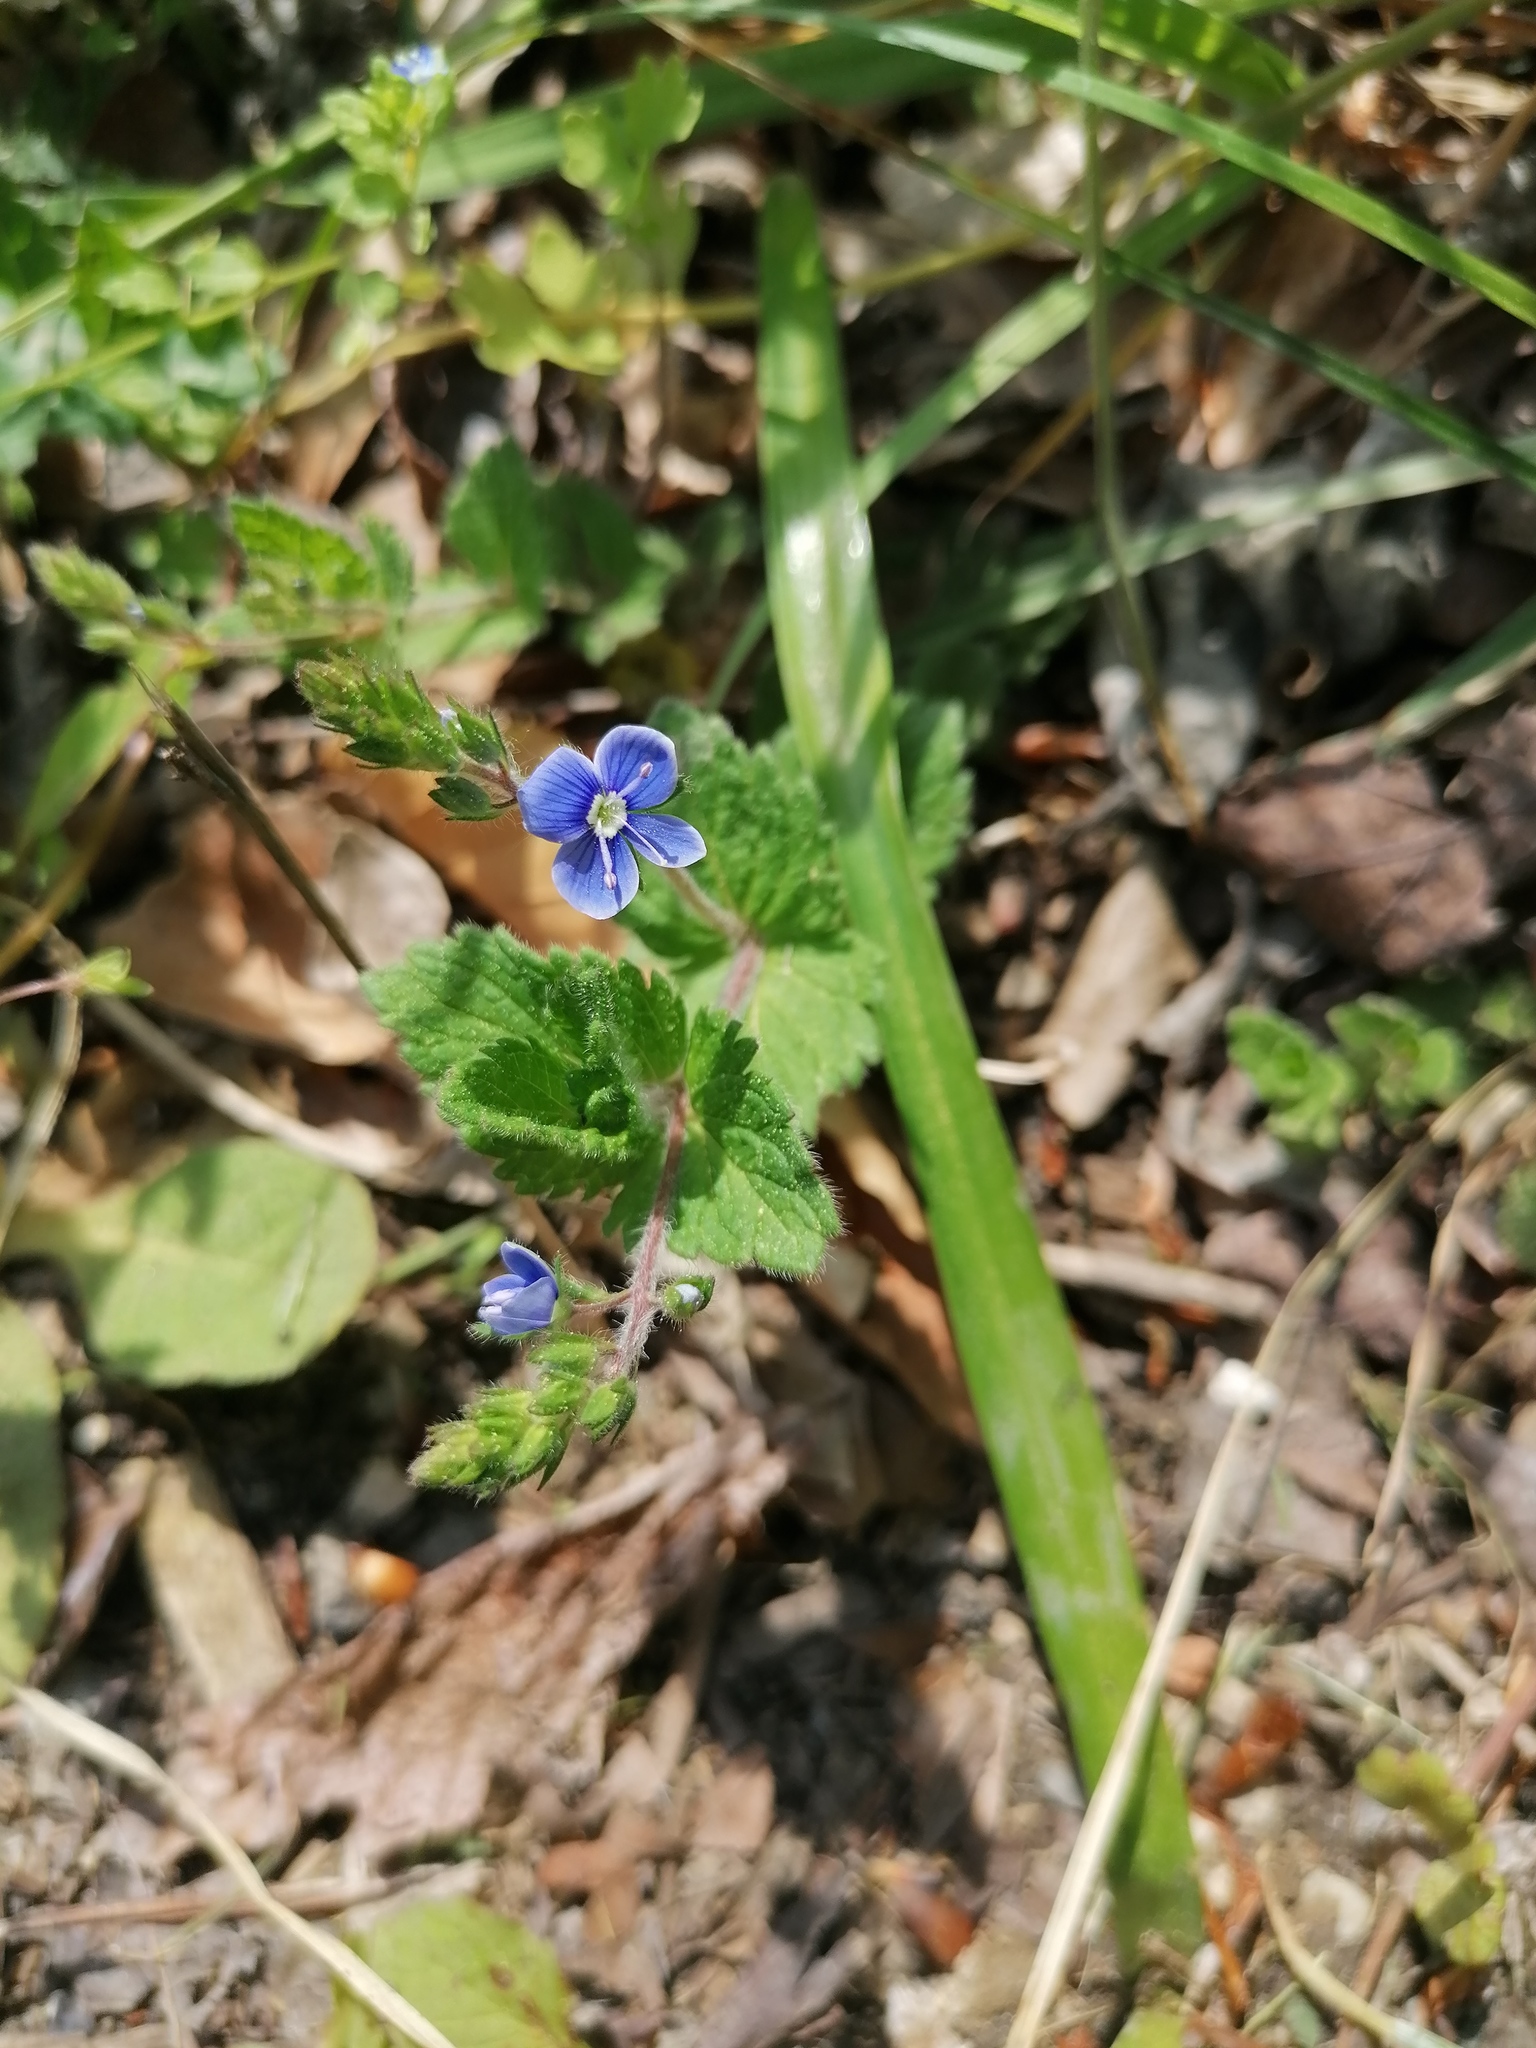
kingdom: Plantae
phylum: Tracheophyta
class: Magnoliopsida
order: Lamiales
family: Plantaginaceae
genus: Veronica
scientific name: Veronica chamaedrys
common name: Germander speedwell
